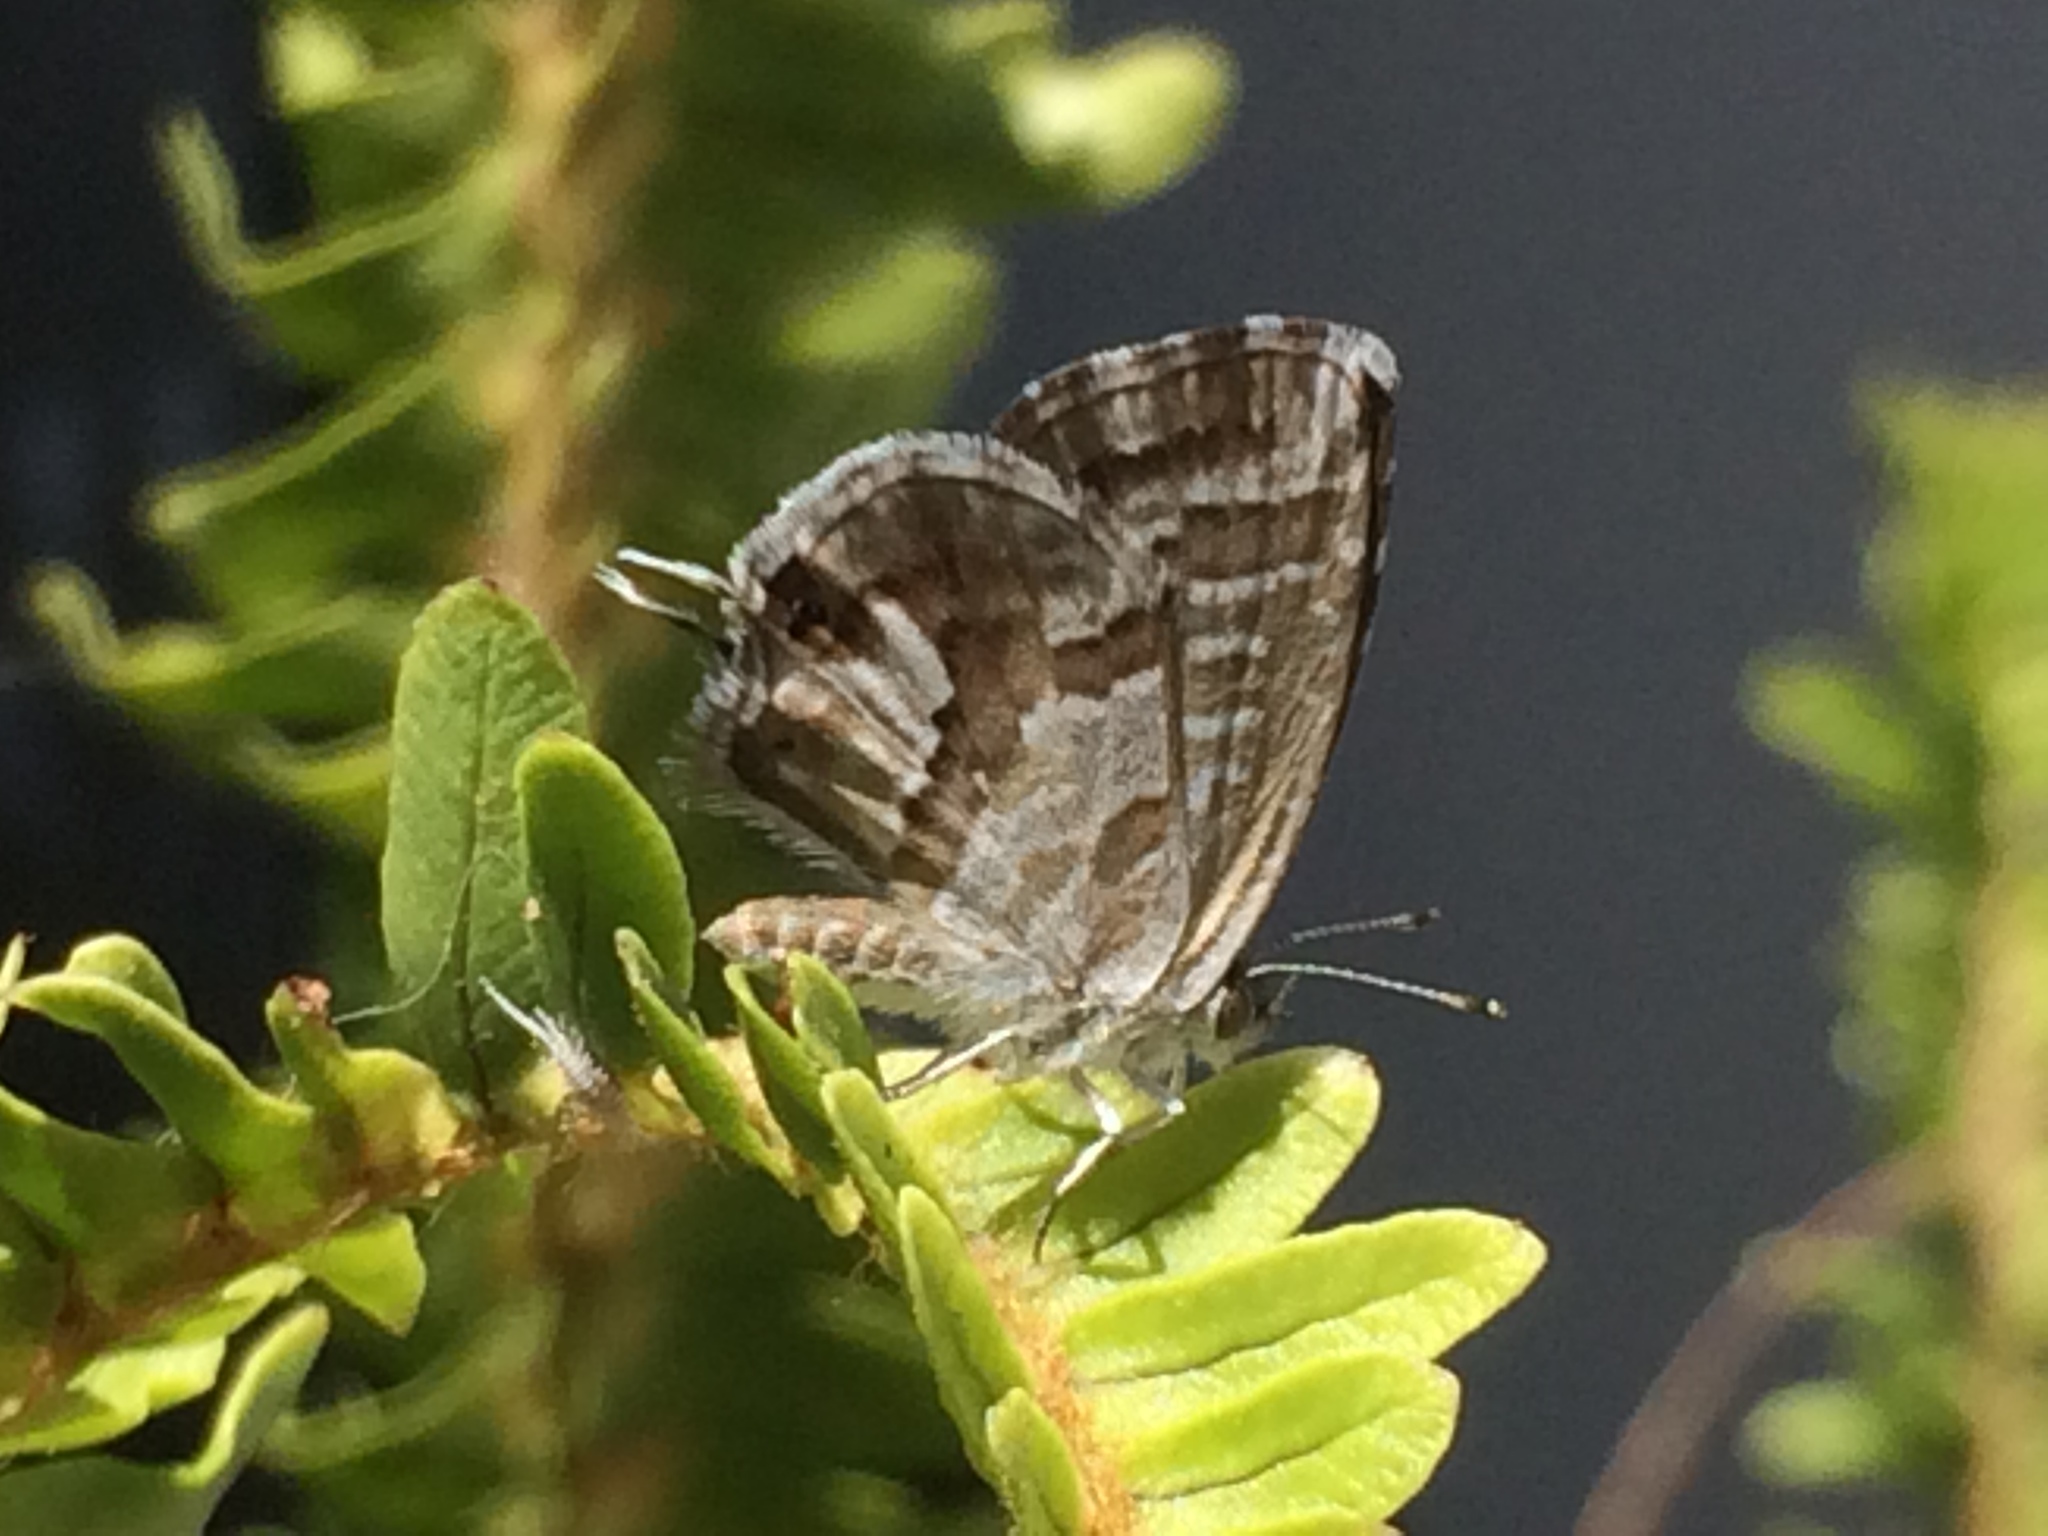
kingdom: Animalia
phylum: Arthropoda
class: Insecta
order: Lepidoptera
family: Lycaenidae
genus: Cacyreus
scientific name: Cacyreus marshalli
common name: Geranium bronze
